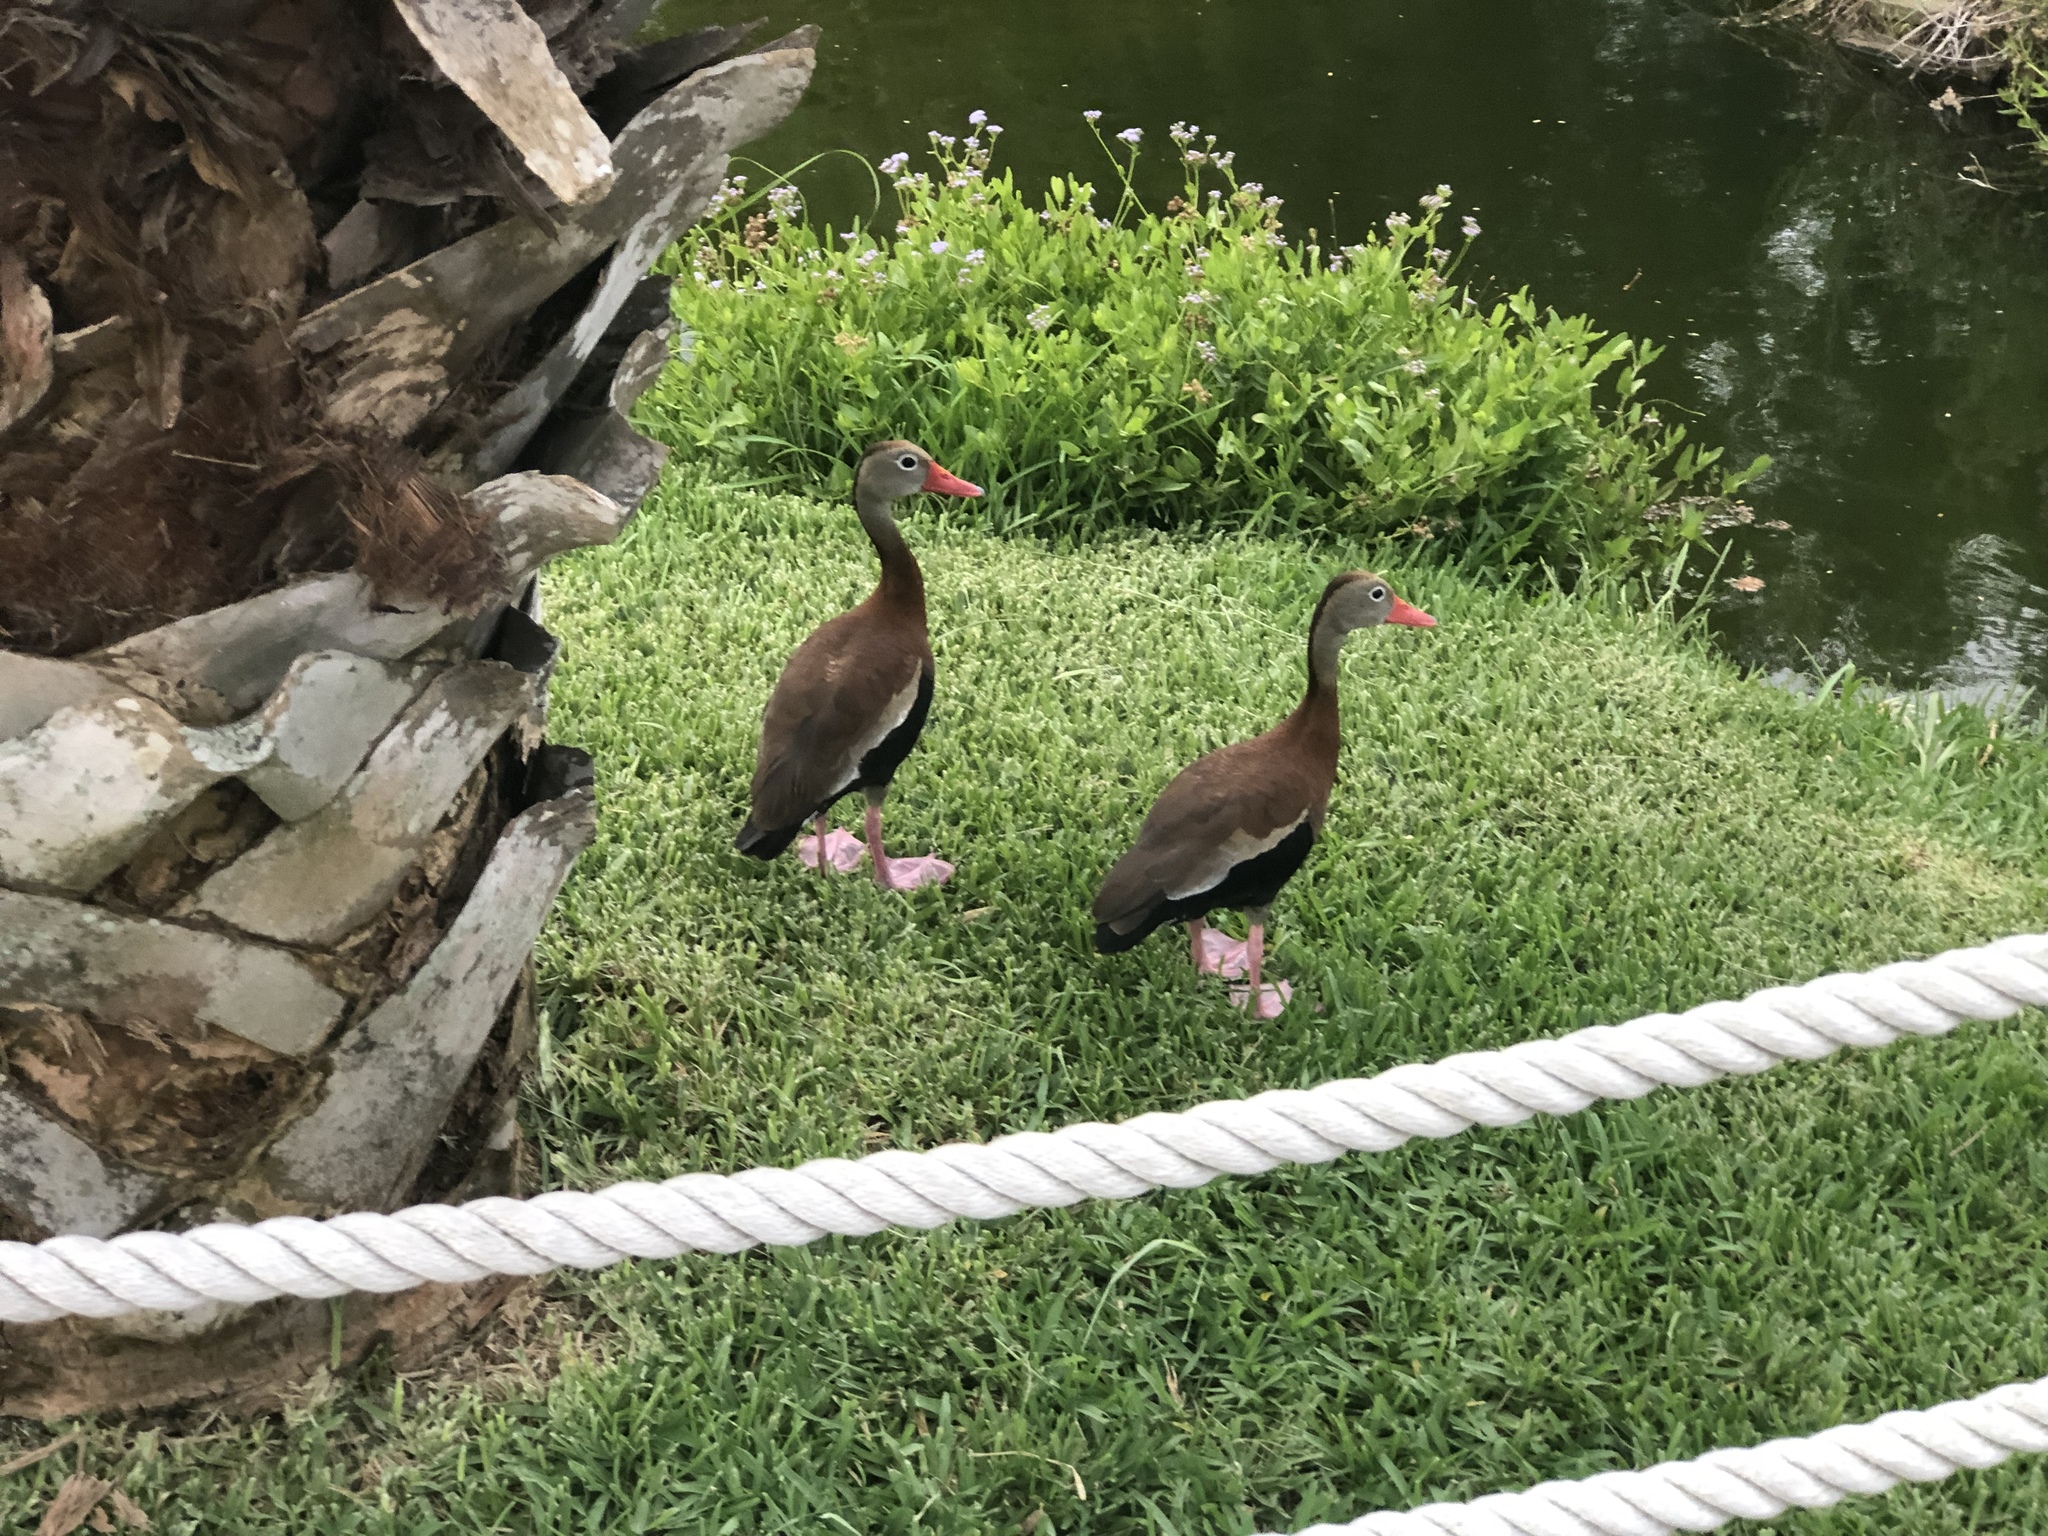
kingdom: Animalia
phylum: Chordata
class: Aves
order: Anseriformes
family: Anatidae
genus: Dendrocygna
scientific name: Dendrocygna autumnalis
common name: Black-bellied whistling duck
